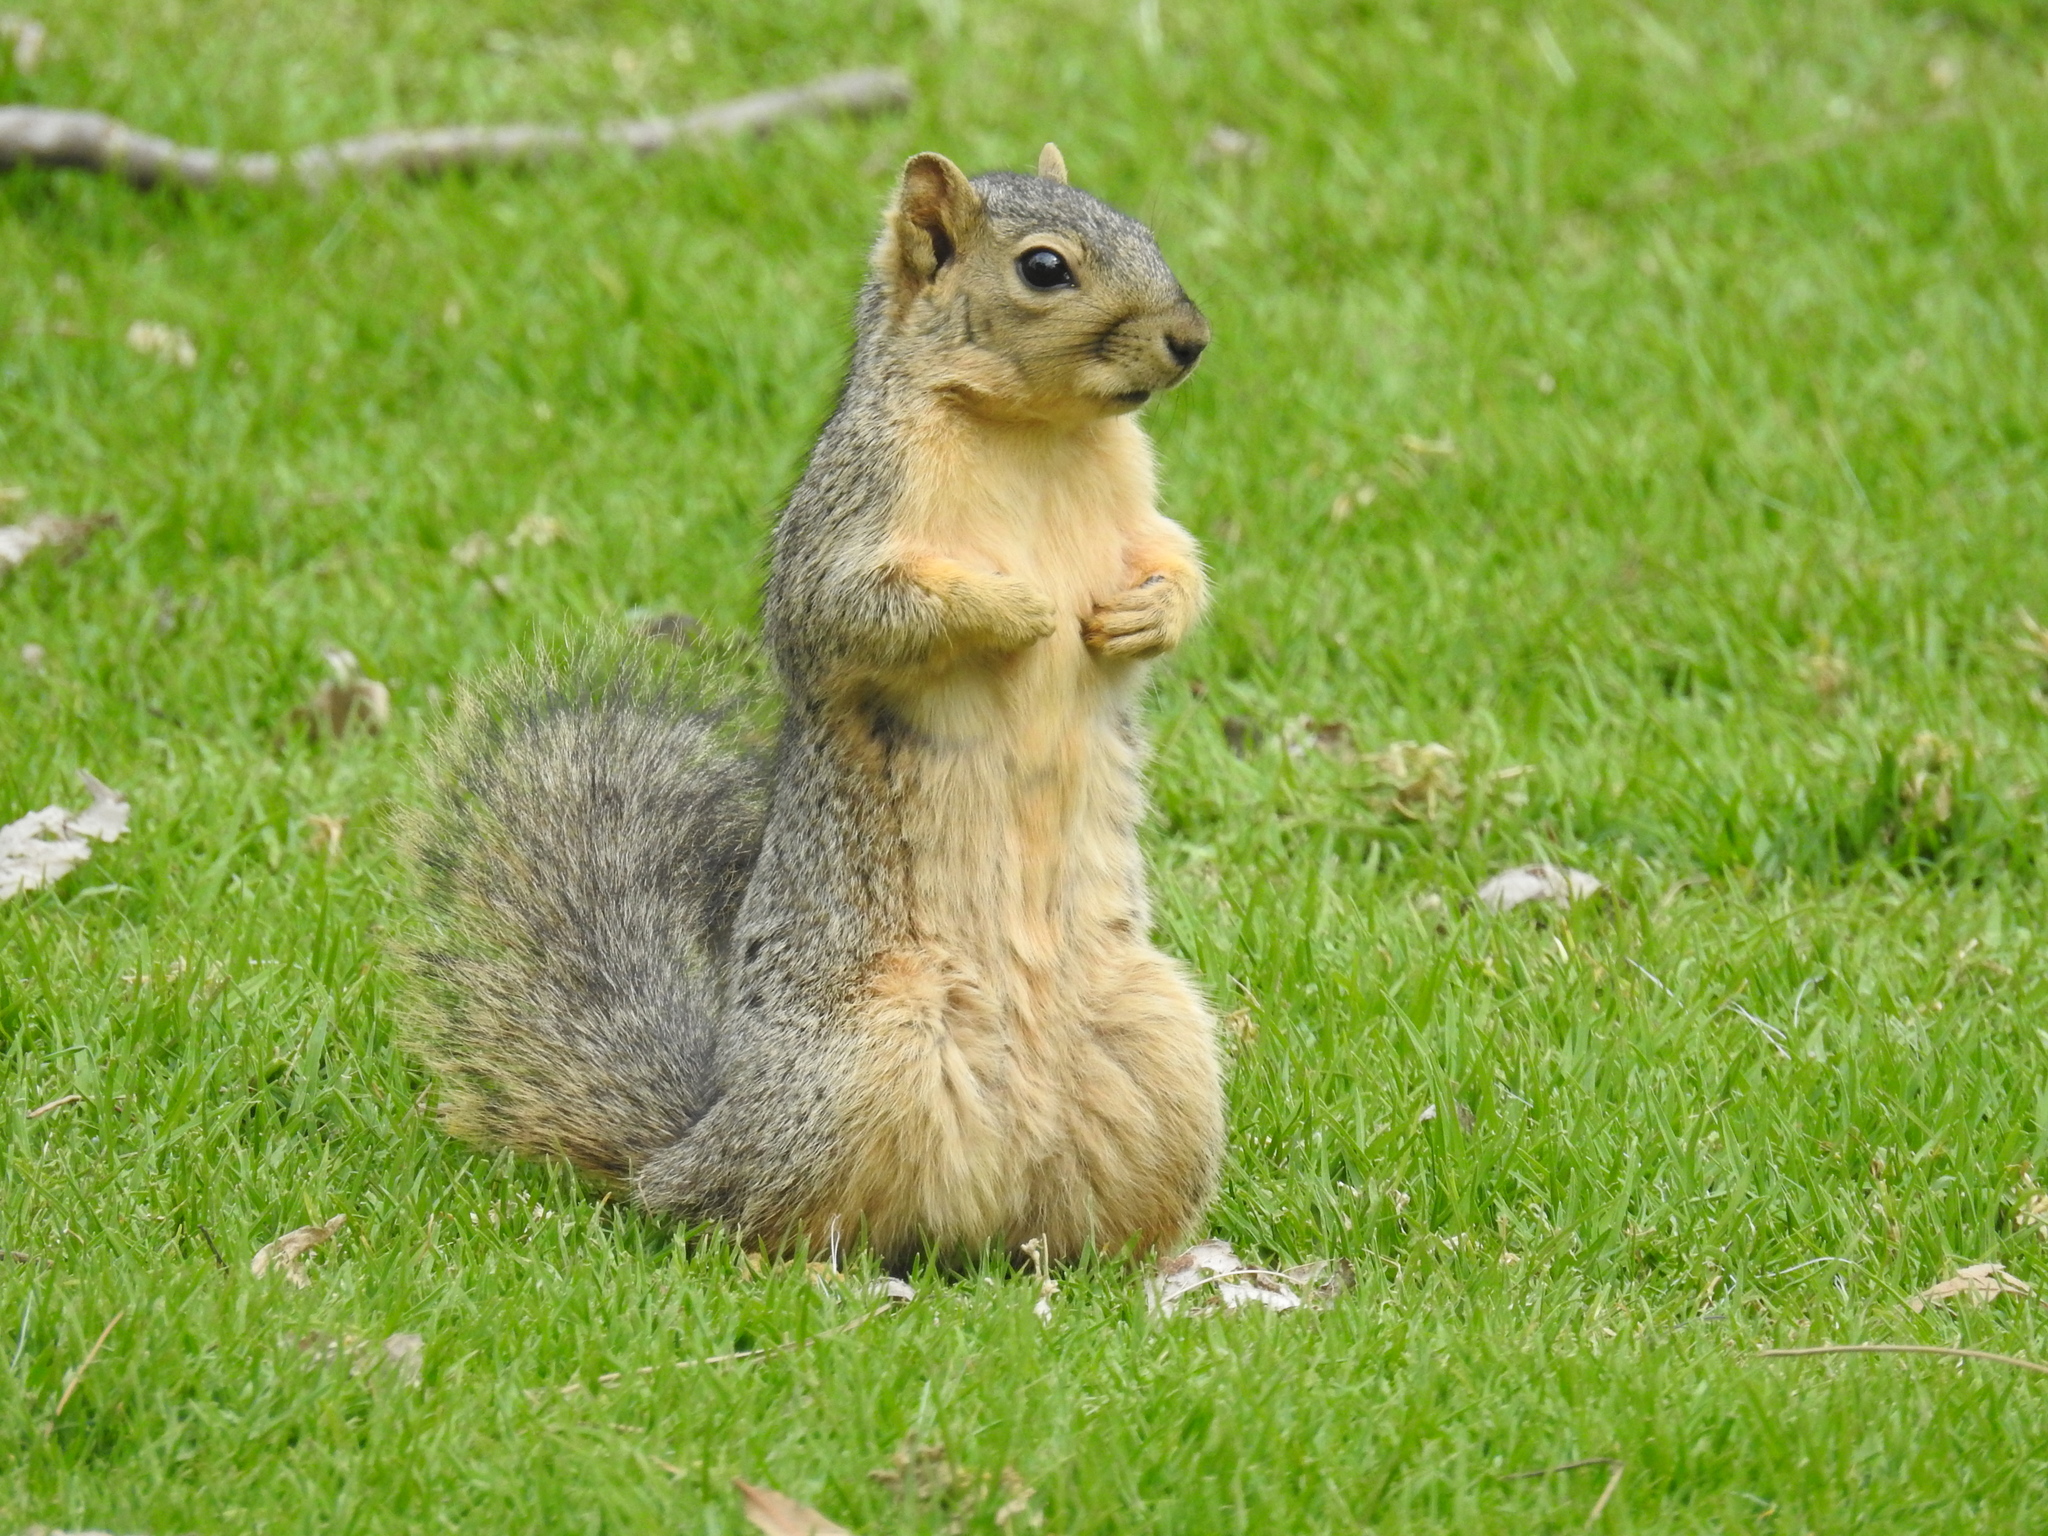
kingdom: Animalia
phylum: Chordata
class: Mammalia
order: Rodentia
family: Sciuridae
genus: Sciurus
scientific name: Sciurus niger
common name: Fox squirrel
